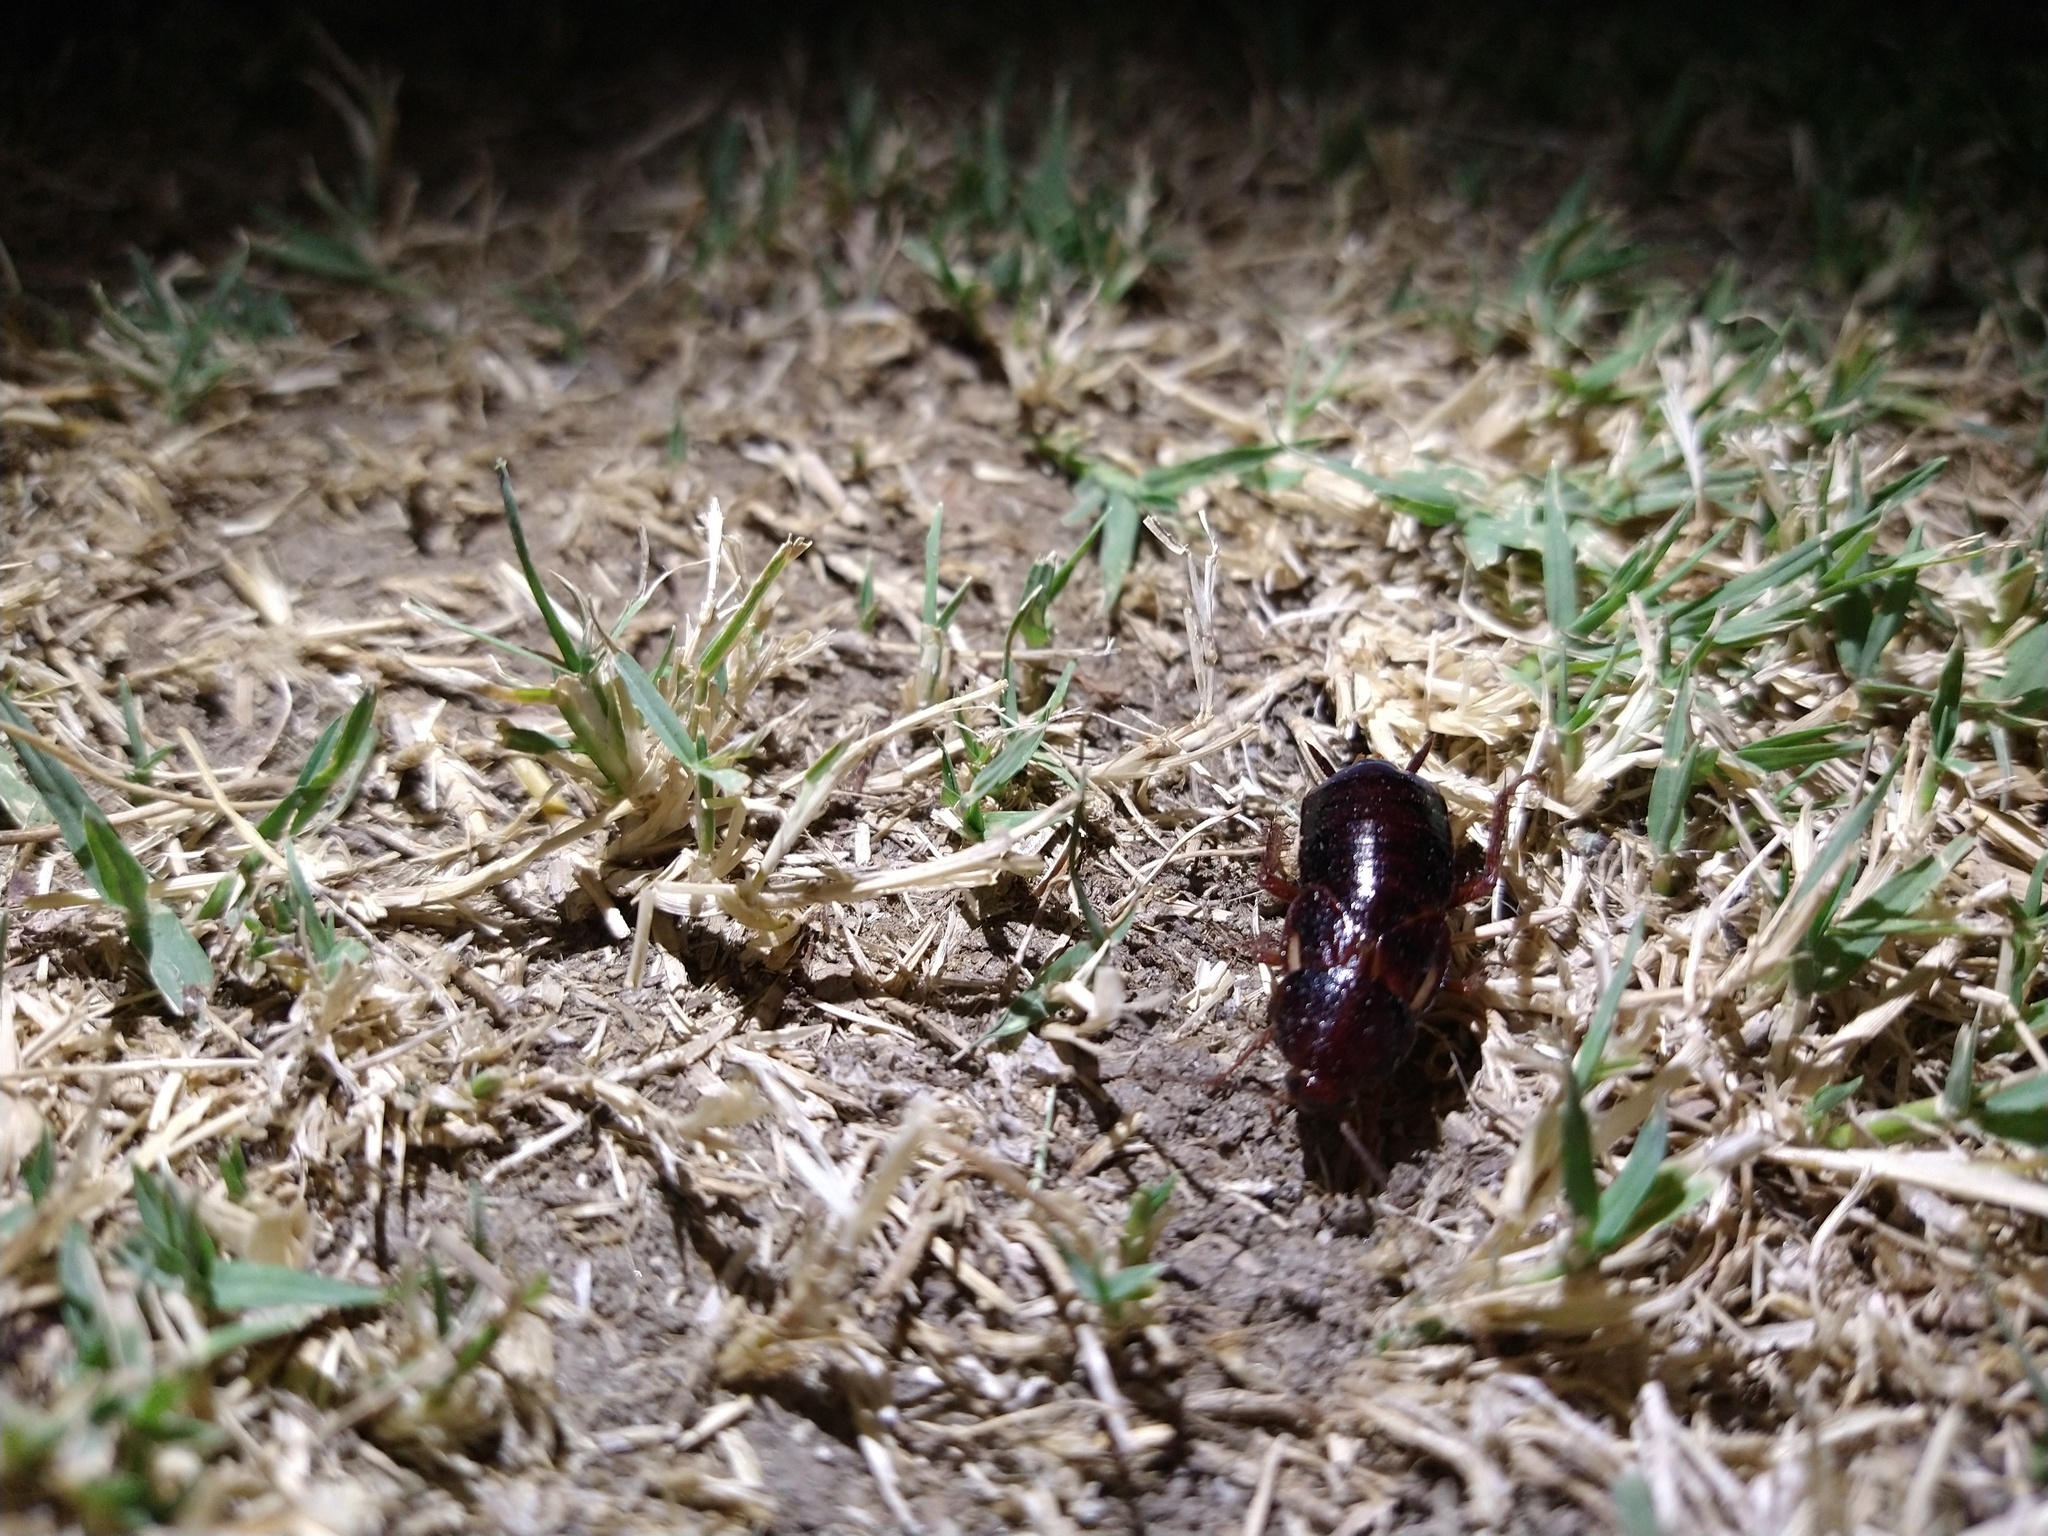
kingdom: Animalia
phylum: Arthropoda
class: Insecta
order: Blattodea
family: Blattidae
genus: Periplaneta
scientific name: Periplaneta lateralis
